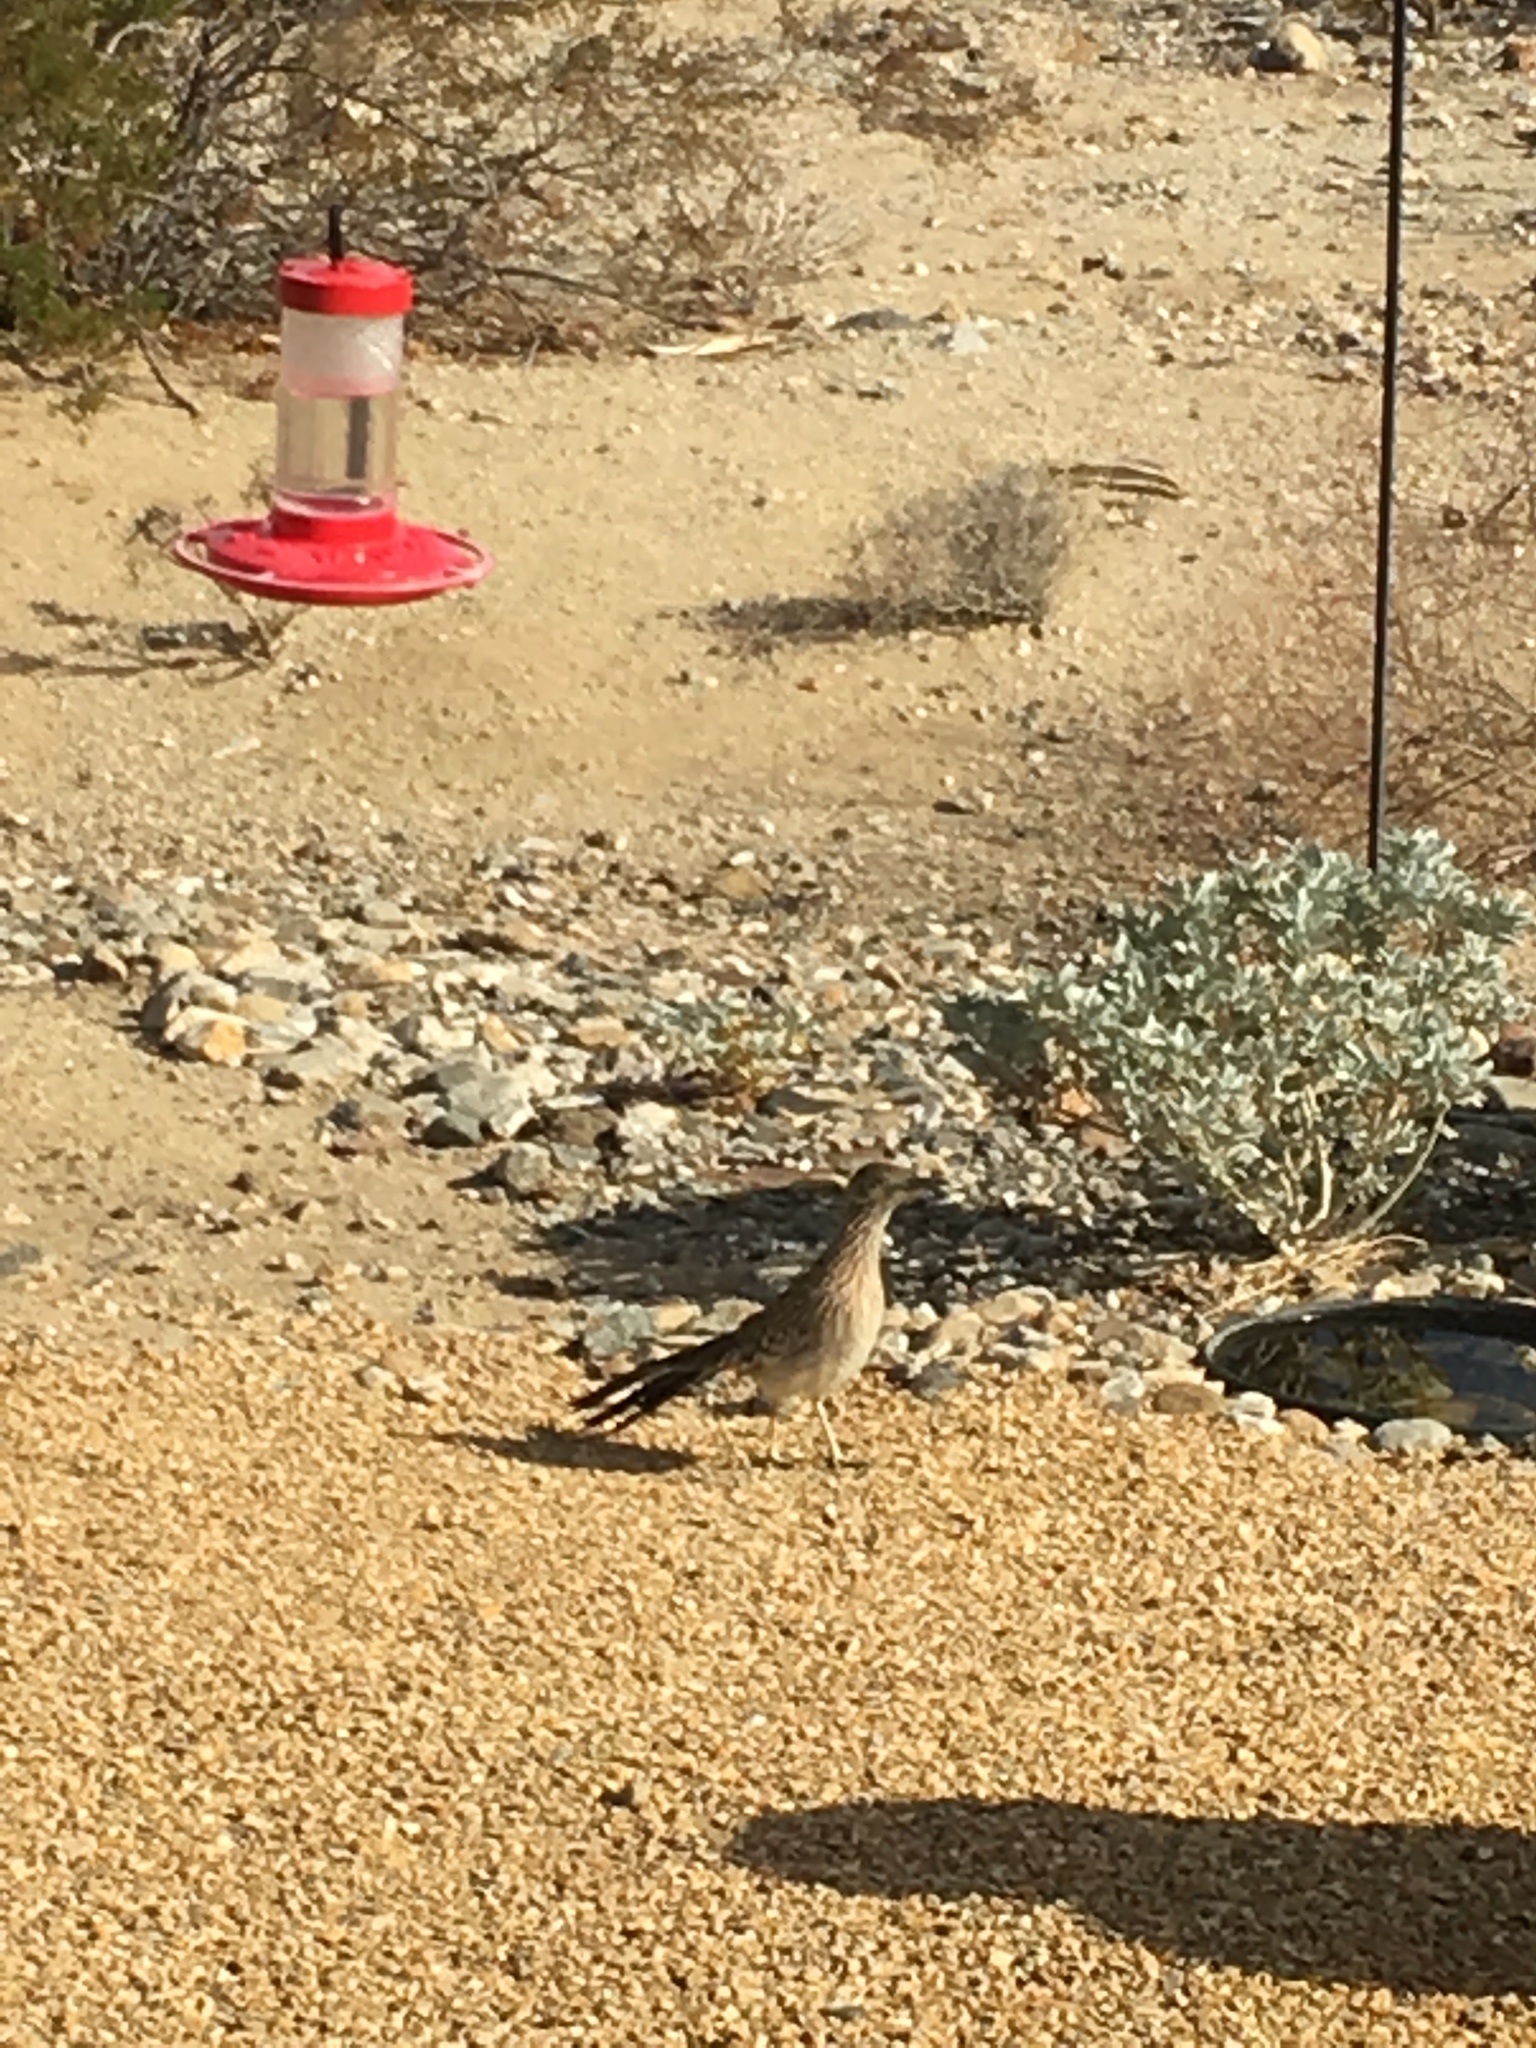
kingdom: Animalia
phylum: Chordata
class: Aves
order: Cuculiformes
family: Cuculidae
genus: Geococcyx
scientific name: Geococcyx californianus
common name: Greater roadrunner
